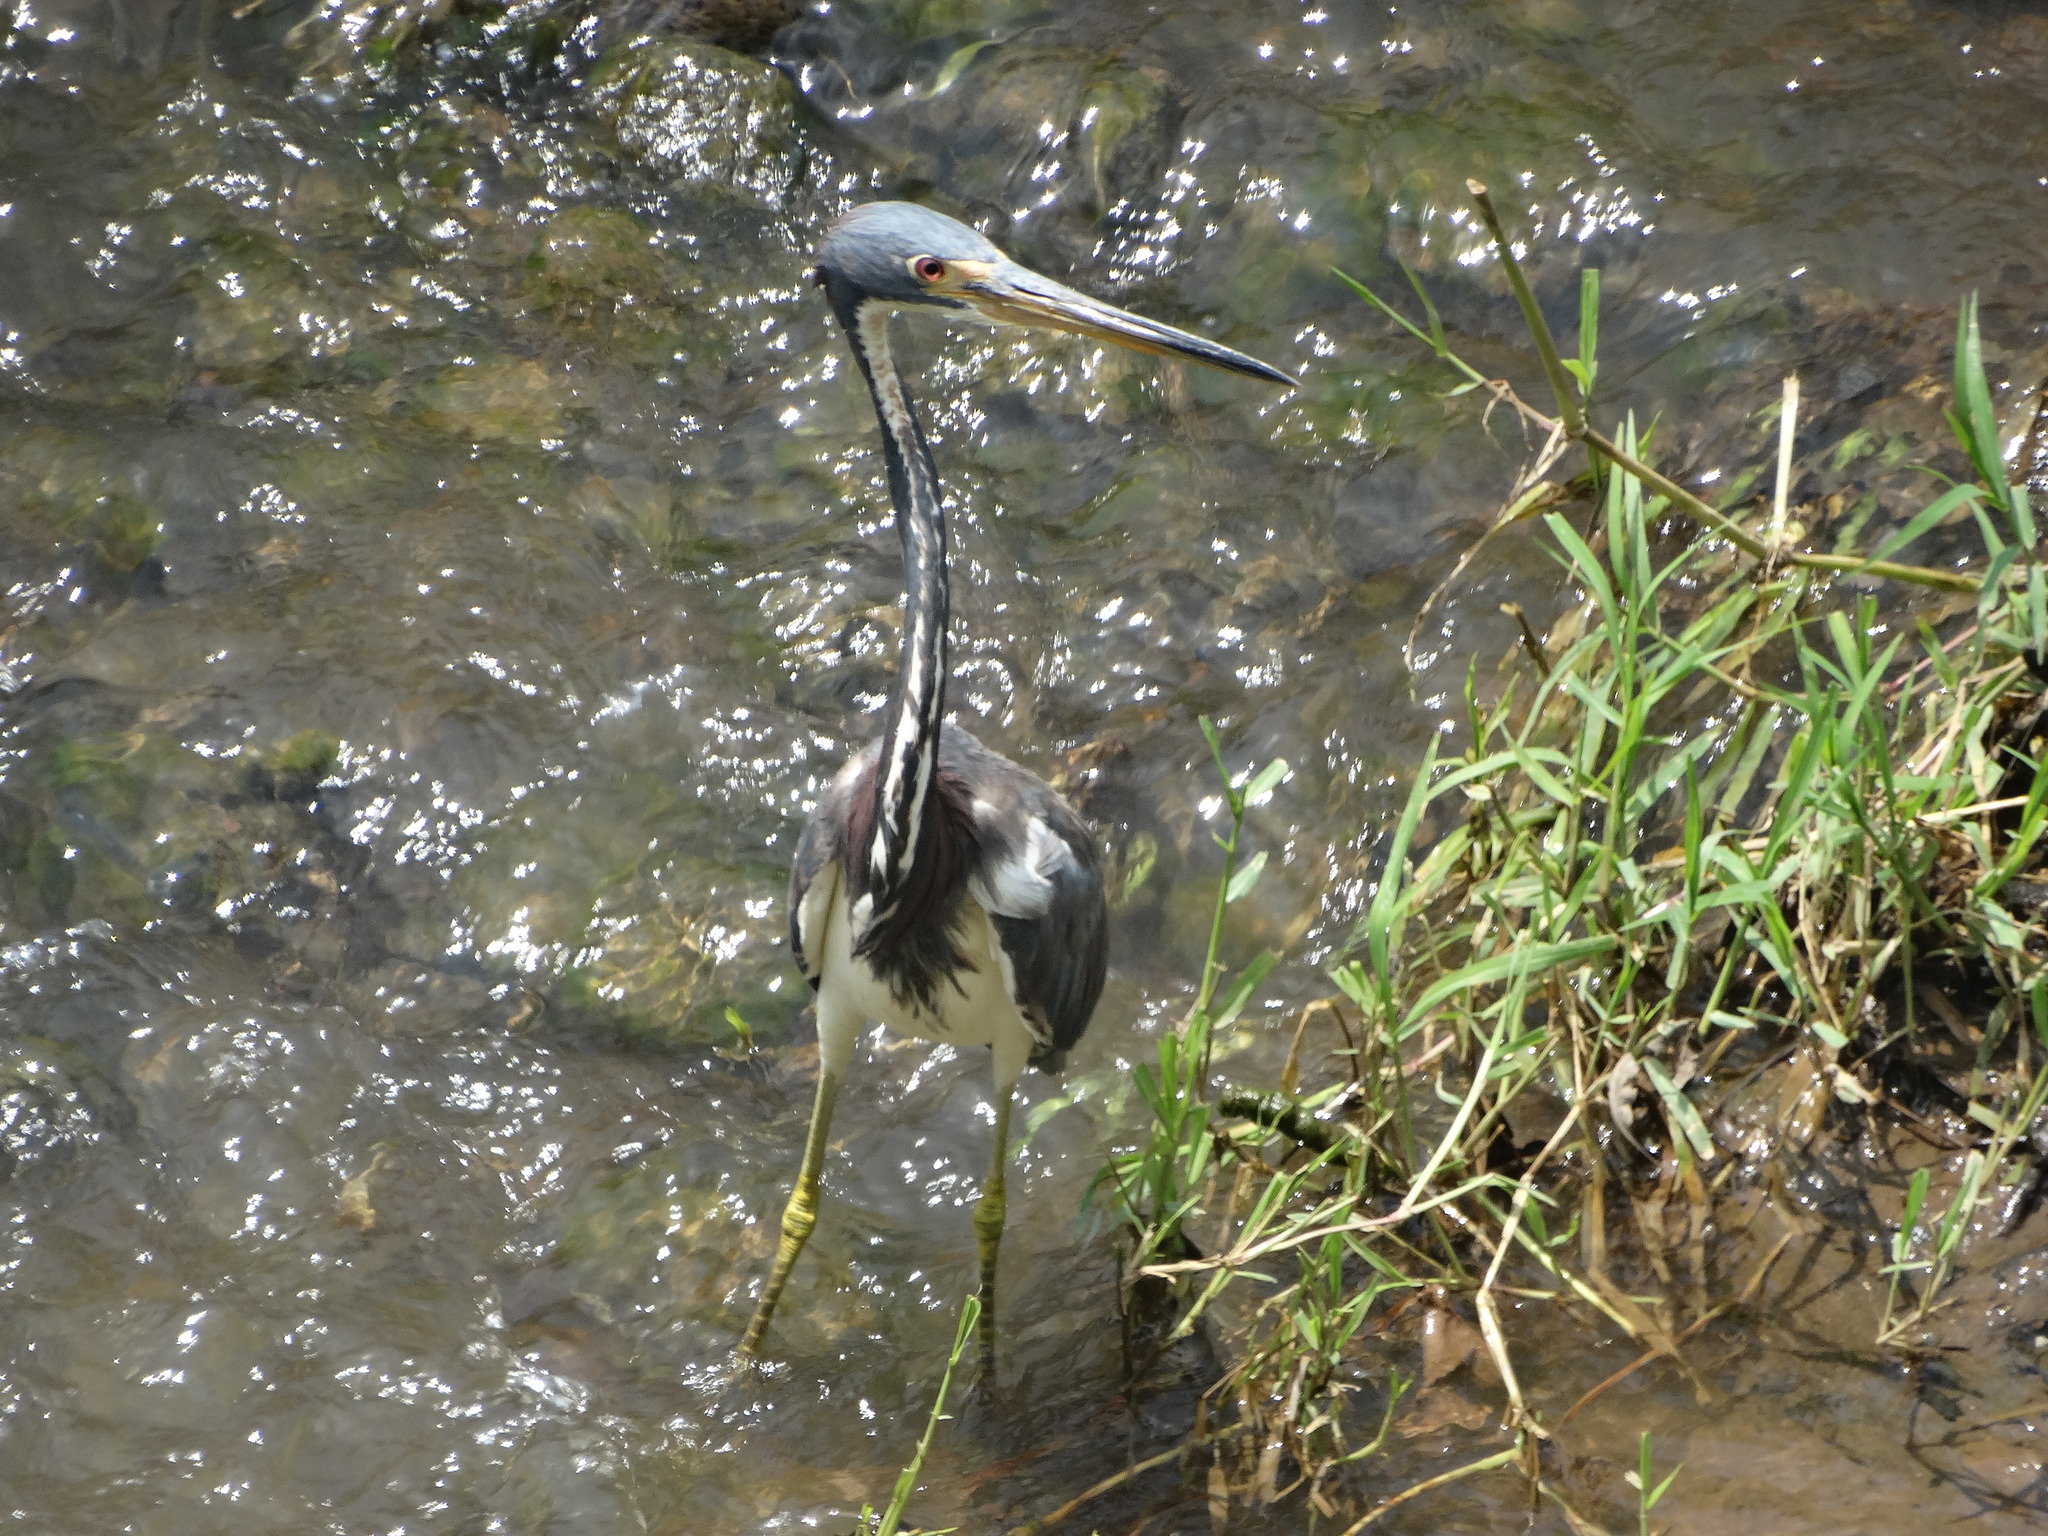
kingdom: Animalia
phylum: Chordata
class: Aves
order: Pelecaniformes
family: Ardeidae
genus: Egretta
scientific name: Egretta tricolor
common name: Tricolored heron
